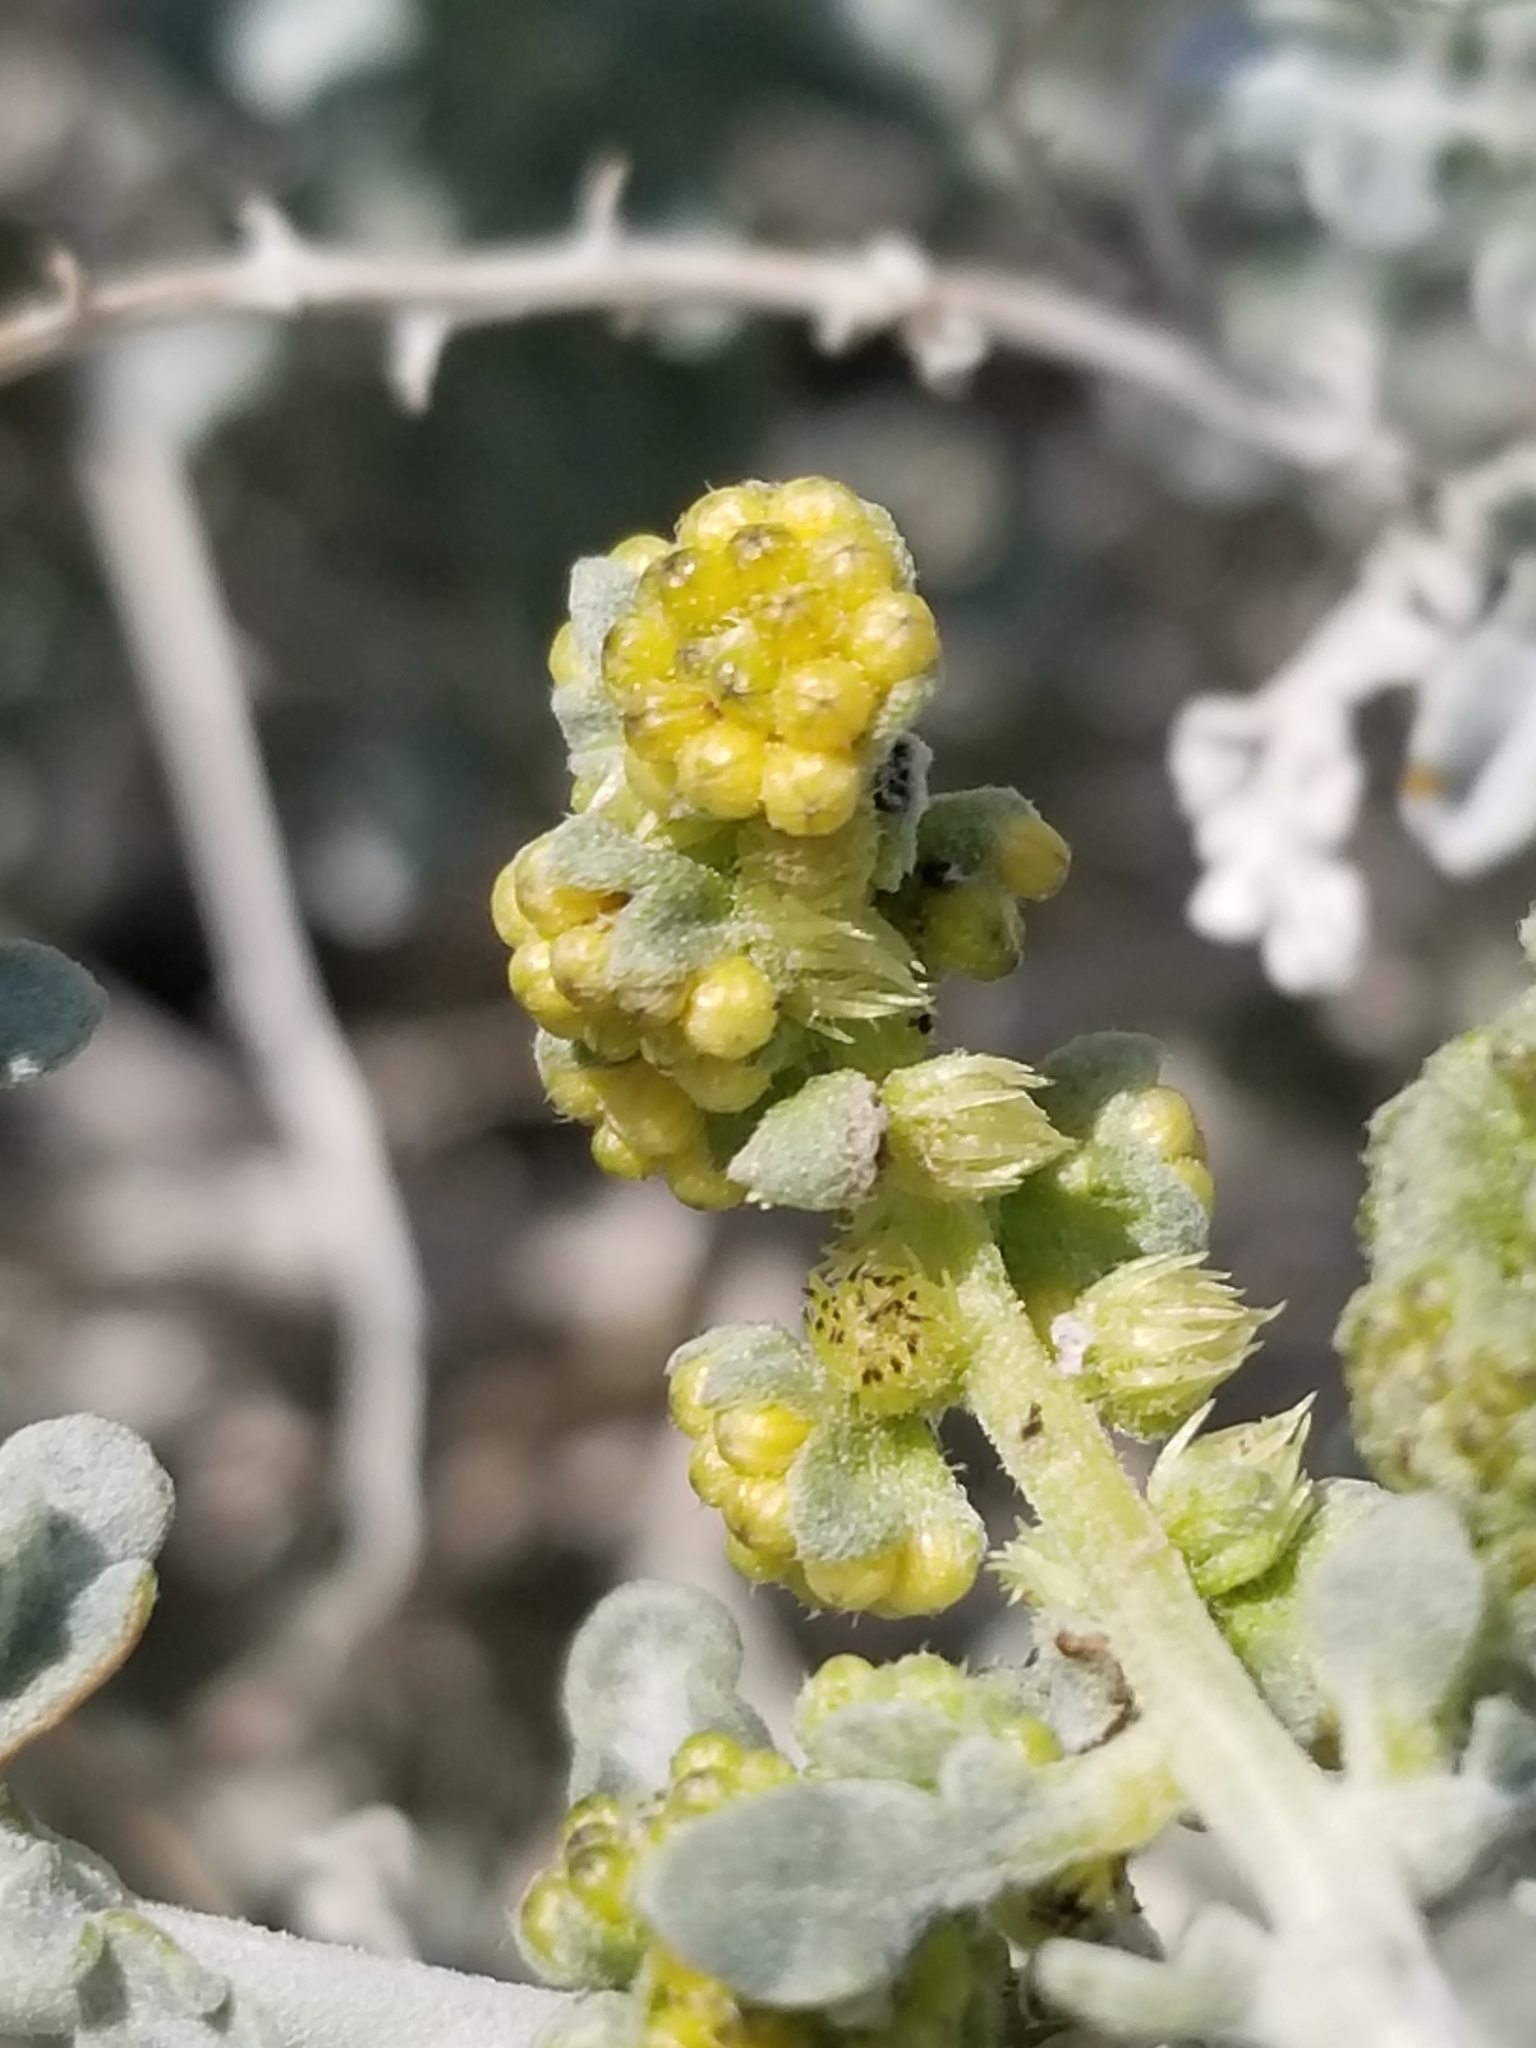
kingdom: Plantae
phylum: Tracheophyta
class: Magnoliopsida
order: Asterales
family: Asteraceae
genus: Ambrosia
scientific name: Ambrosia dumosa
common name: Bur-sage
